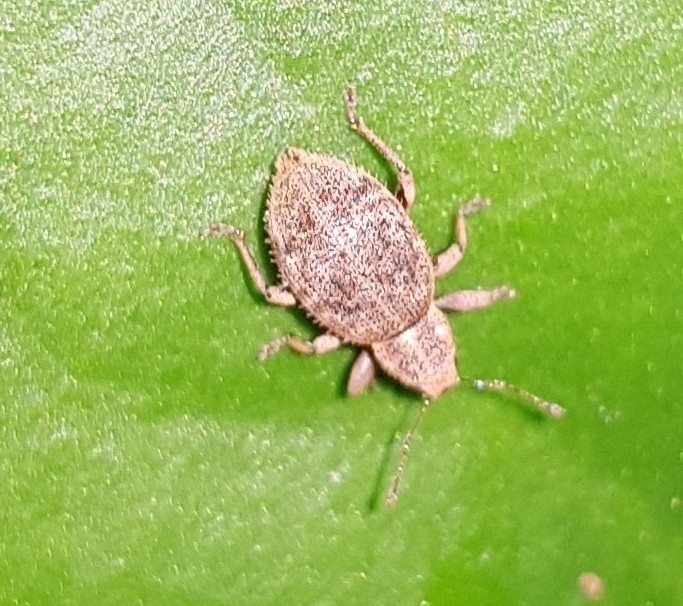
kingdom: Animalia
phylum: Arthropoda
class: Insecta
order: Coleoptera
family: Curculionidae
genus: Sciaphilus
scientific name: Sciaphilus asperatus
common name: Weevil
